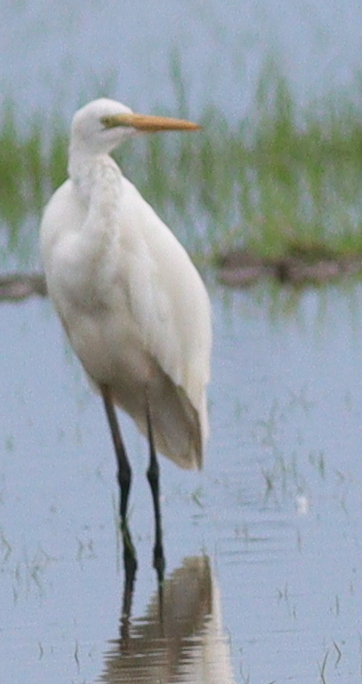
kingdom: Animalia
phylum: Chordata
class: Aves
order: Pelecaniformes
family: Ardeidae
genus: Ardea
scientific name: Ardea alba
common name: Great egret
